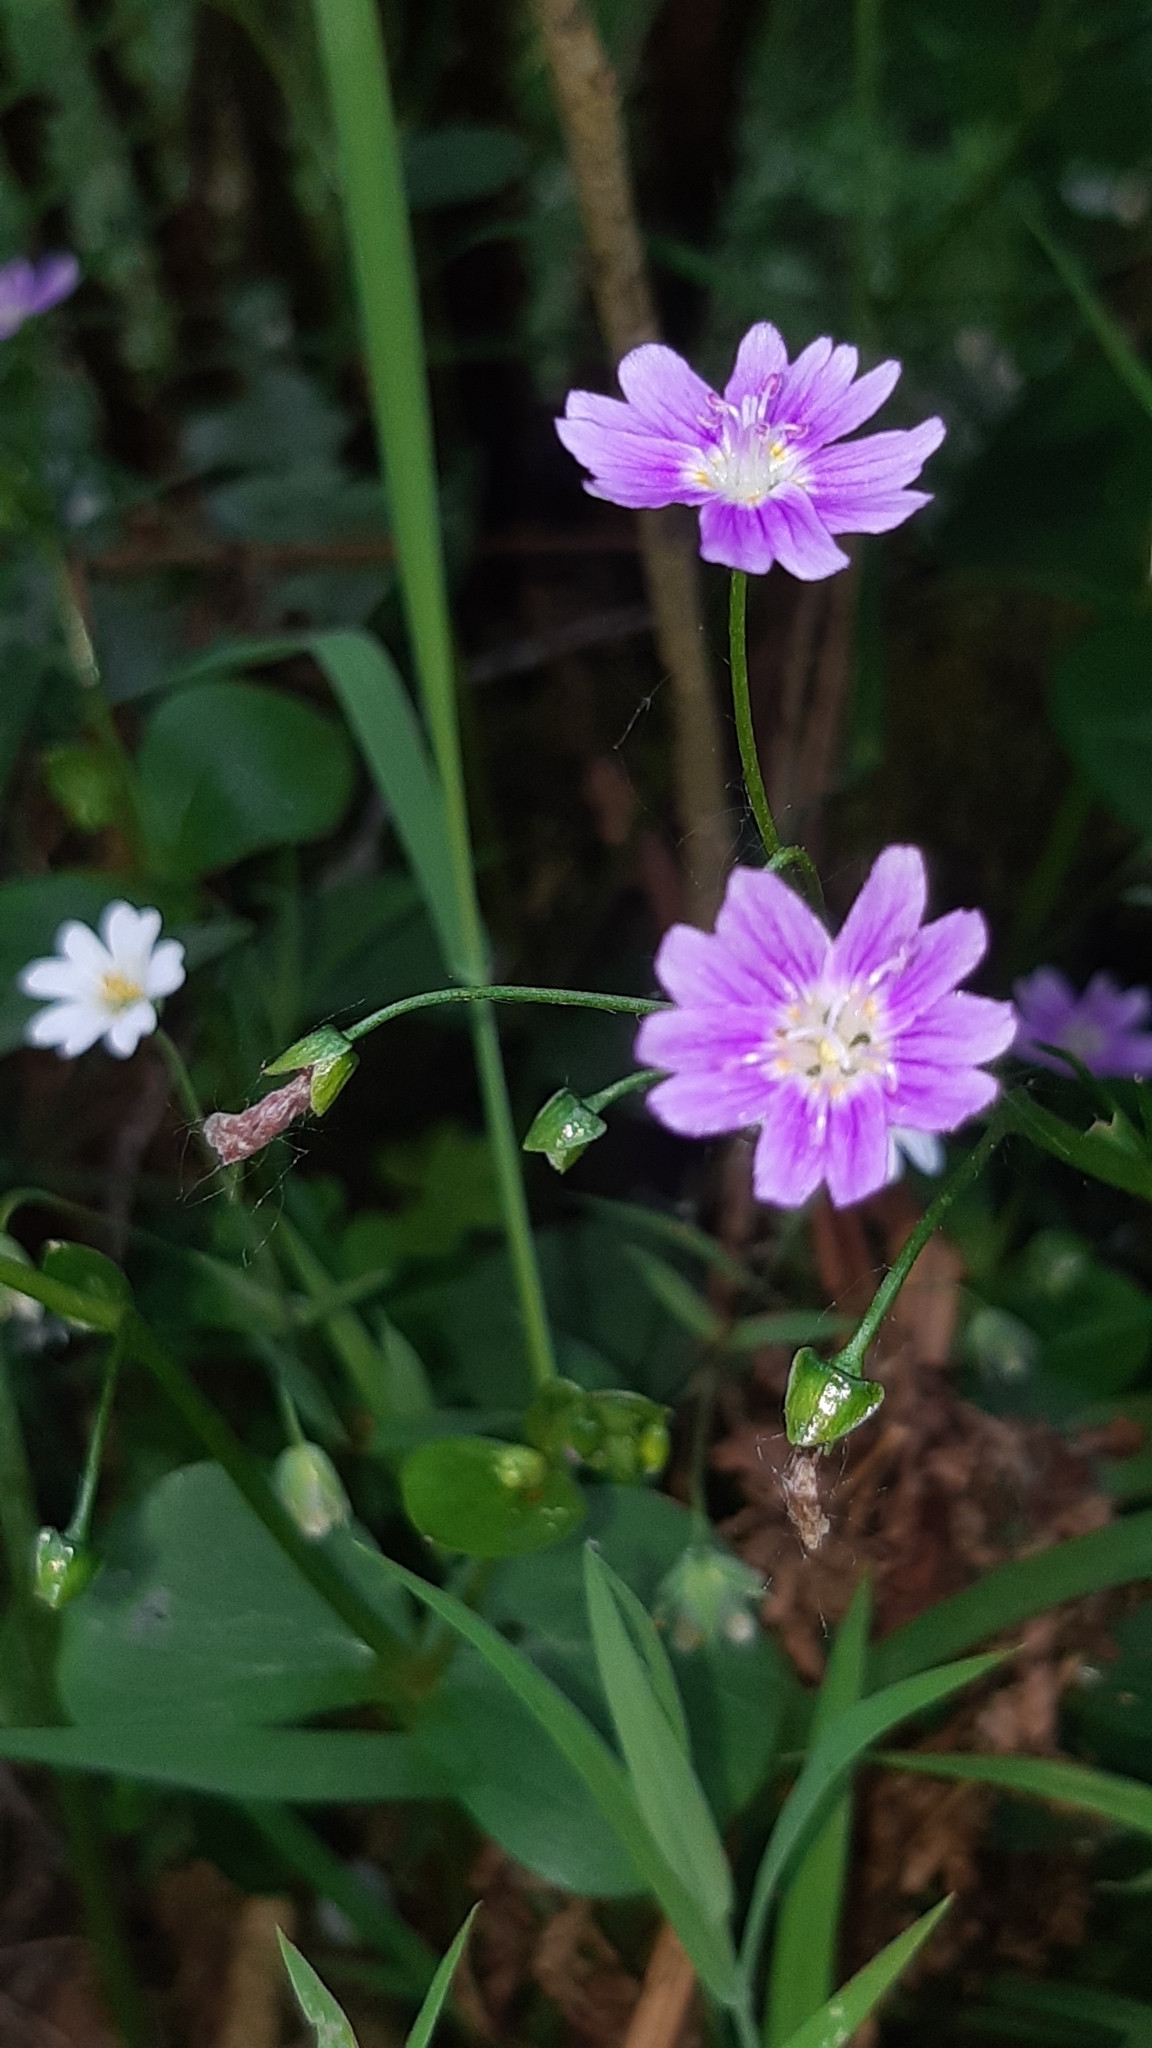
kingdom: Plantae
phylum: Tracheophyta
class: Magnoliopsida
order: Caryophyllales
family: Montiaceae
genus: Claytonia
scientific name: Claytonia sibirica
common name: Pink purslane
